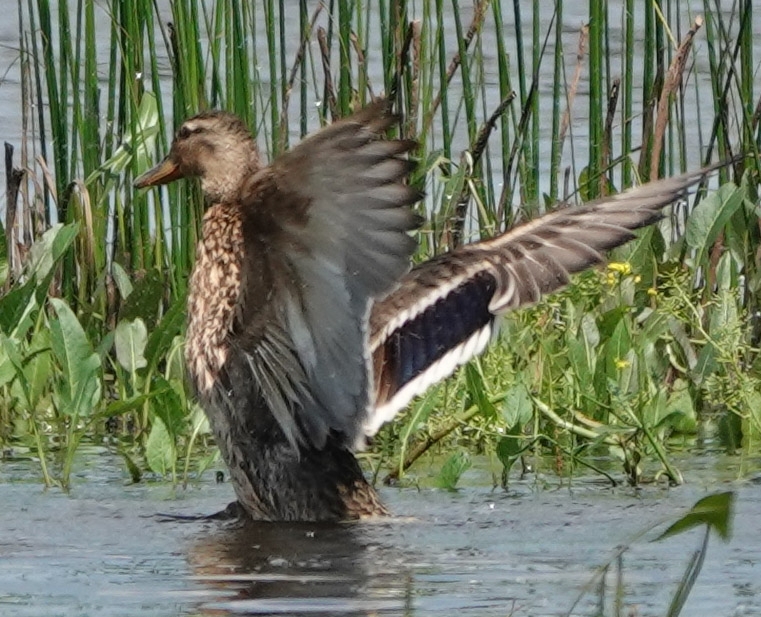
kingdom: Animalia
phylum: Chordata
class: Aves
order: Anseriformes
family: Anatidae
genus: Anas
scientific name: Anas platyrhynchos
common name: Mallard
